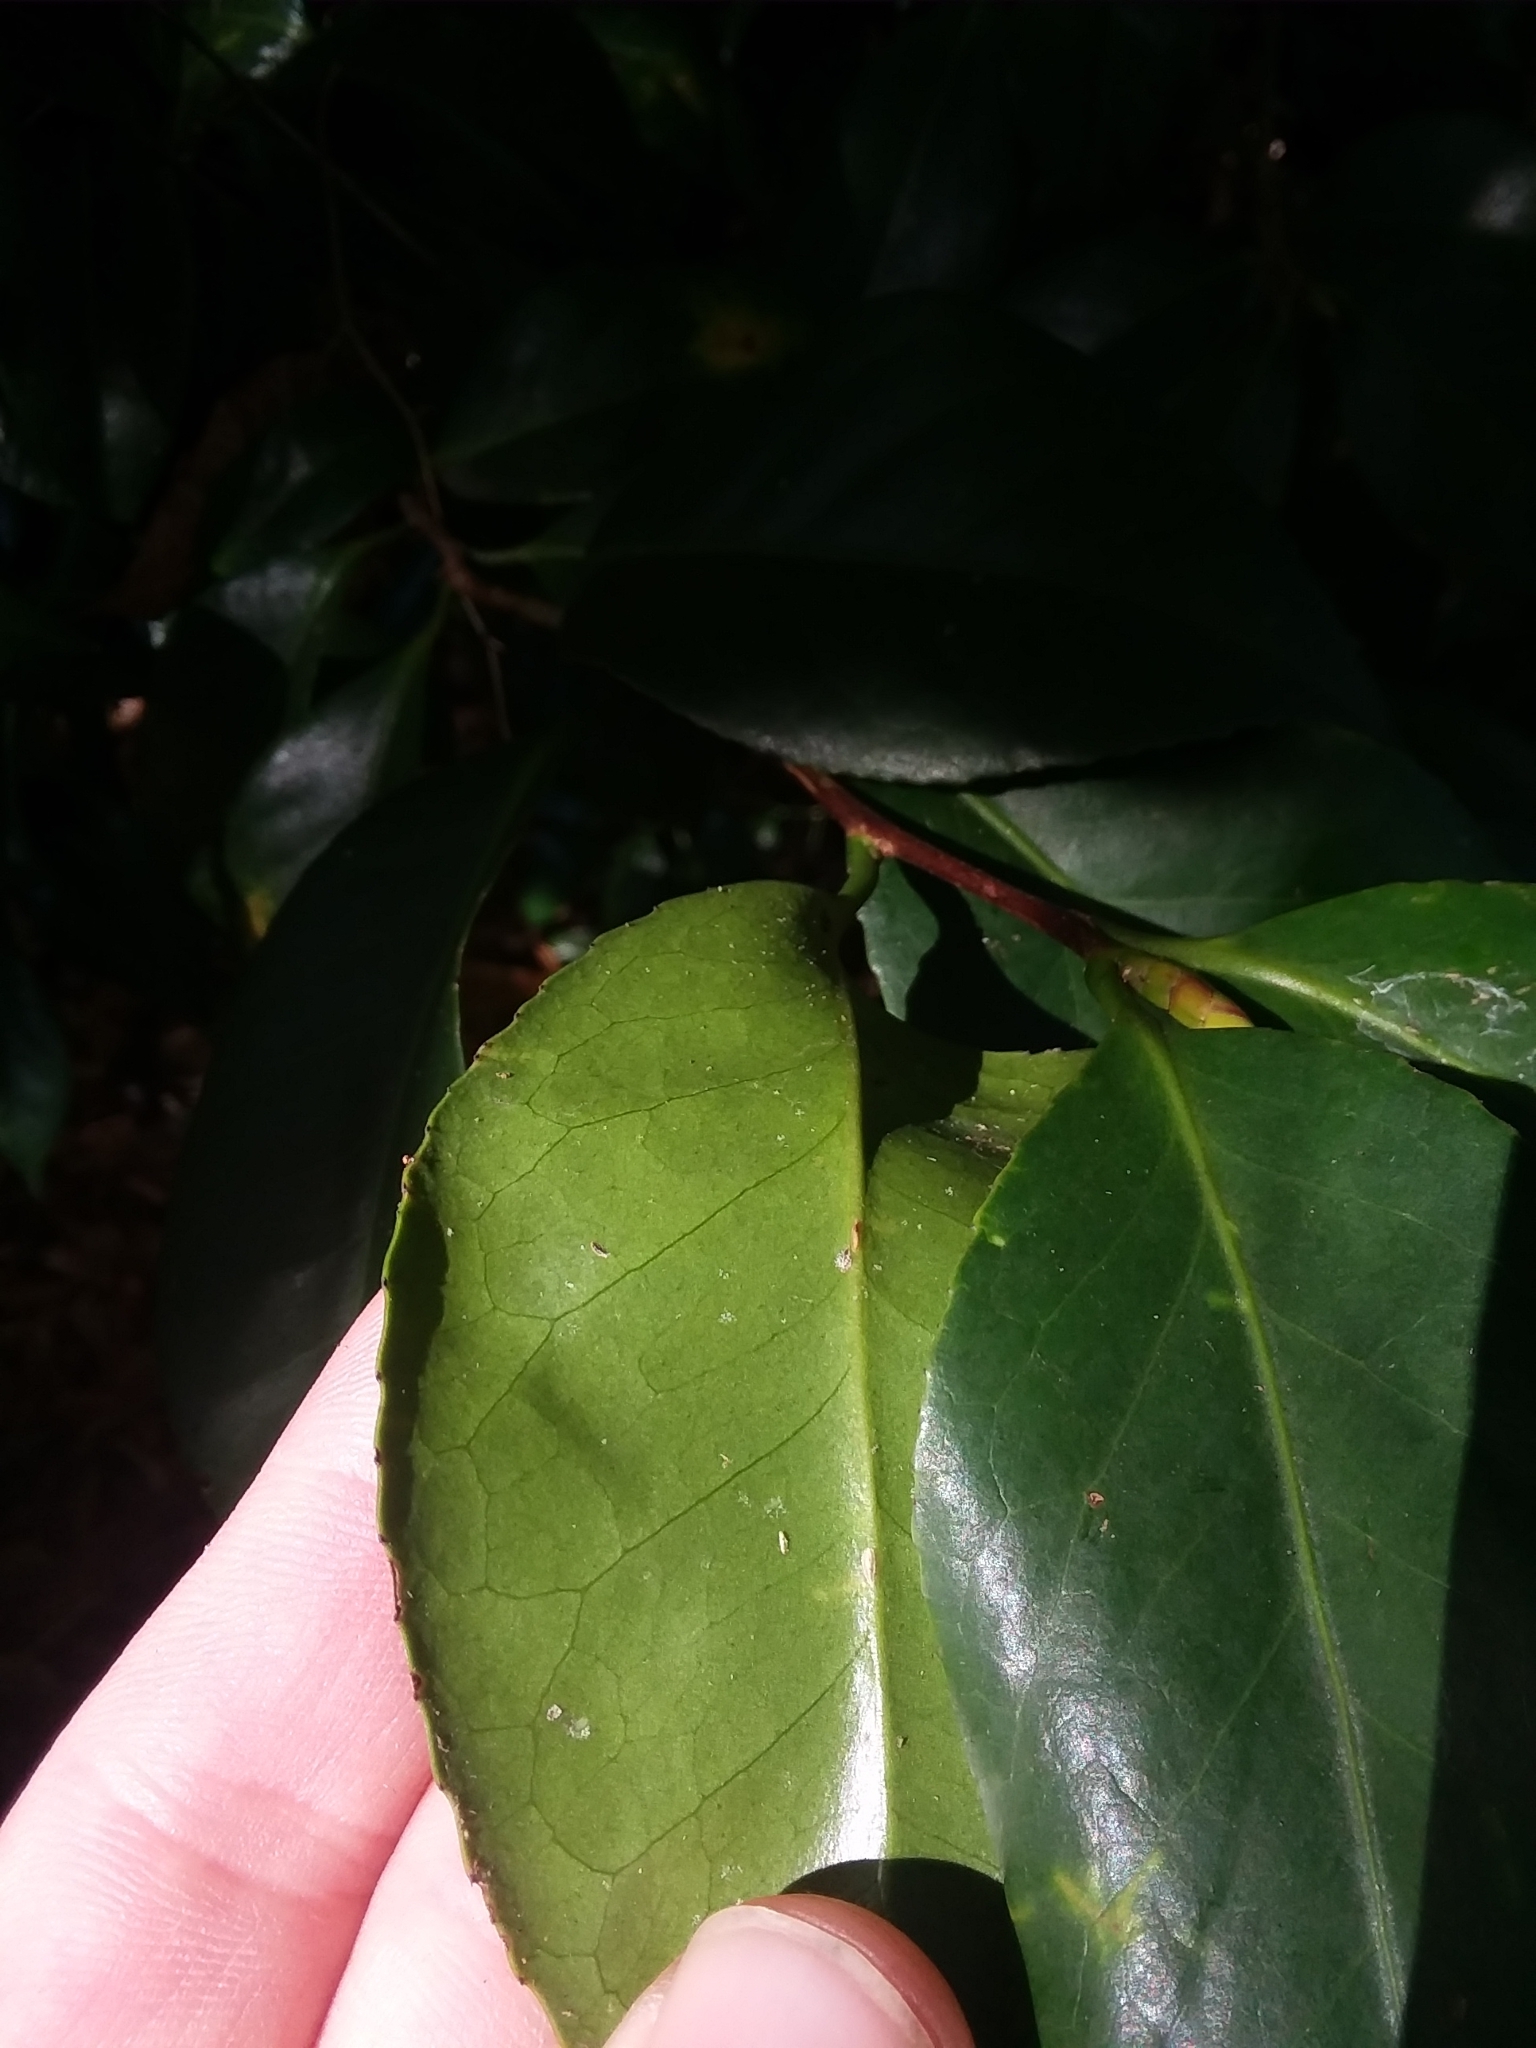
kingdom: Plantae
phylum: Tracheophyta
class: Magnoliopsida
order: Ericales
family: Theaceae
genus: Camellia
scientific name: Camellia japonica
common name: Camellia
